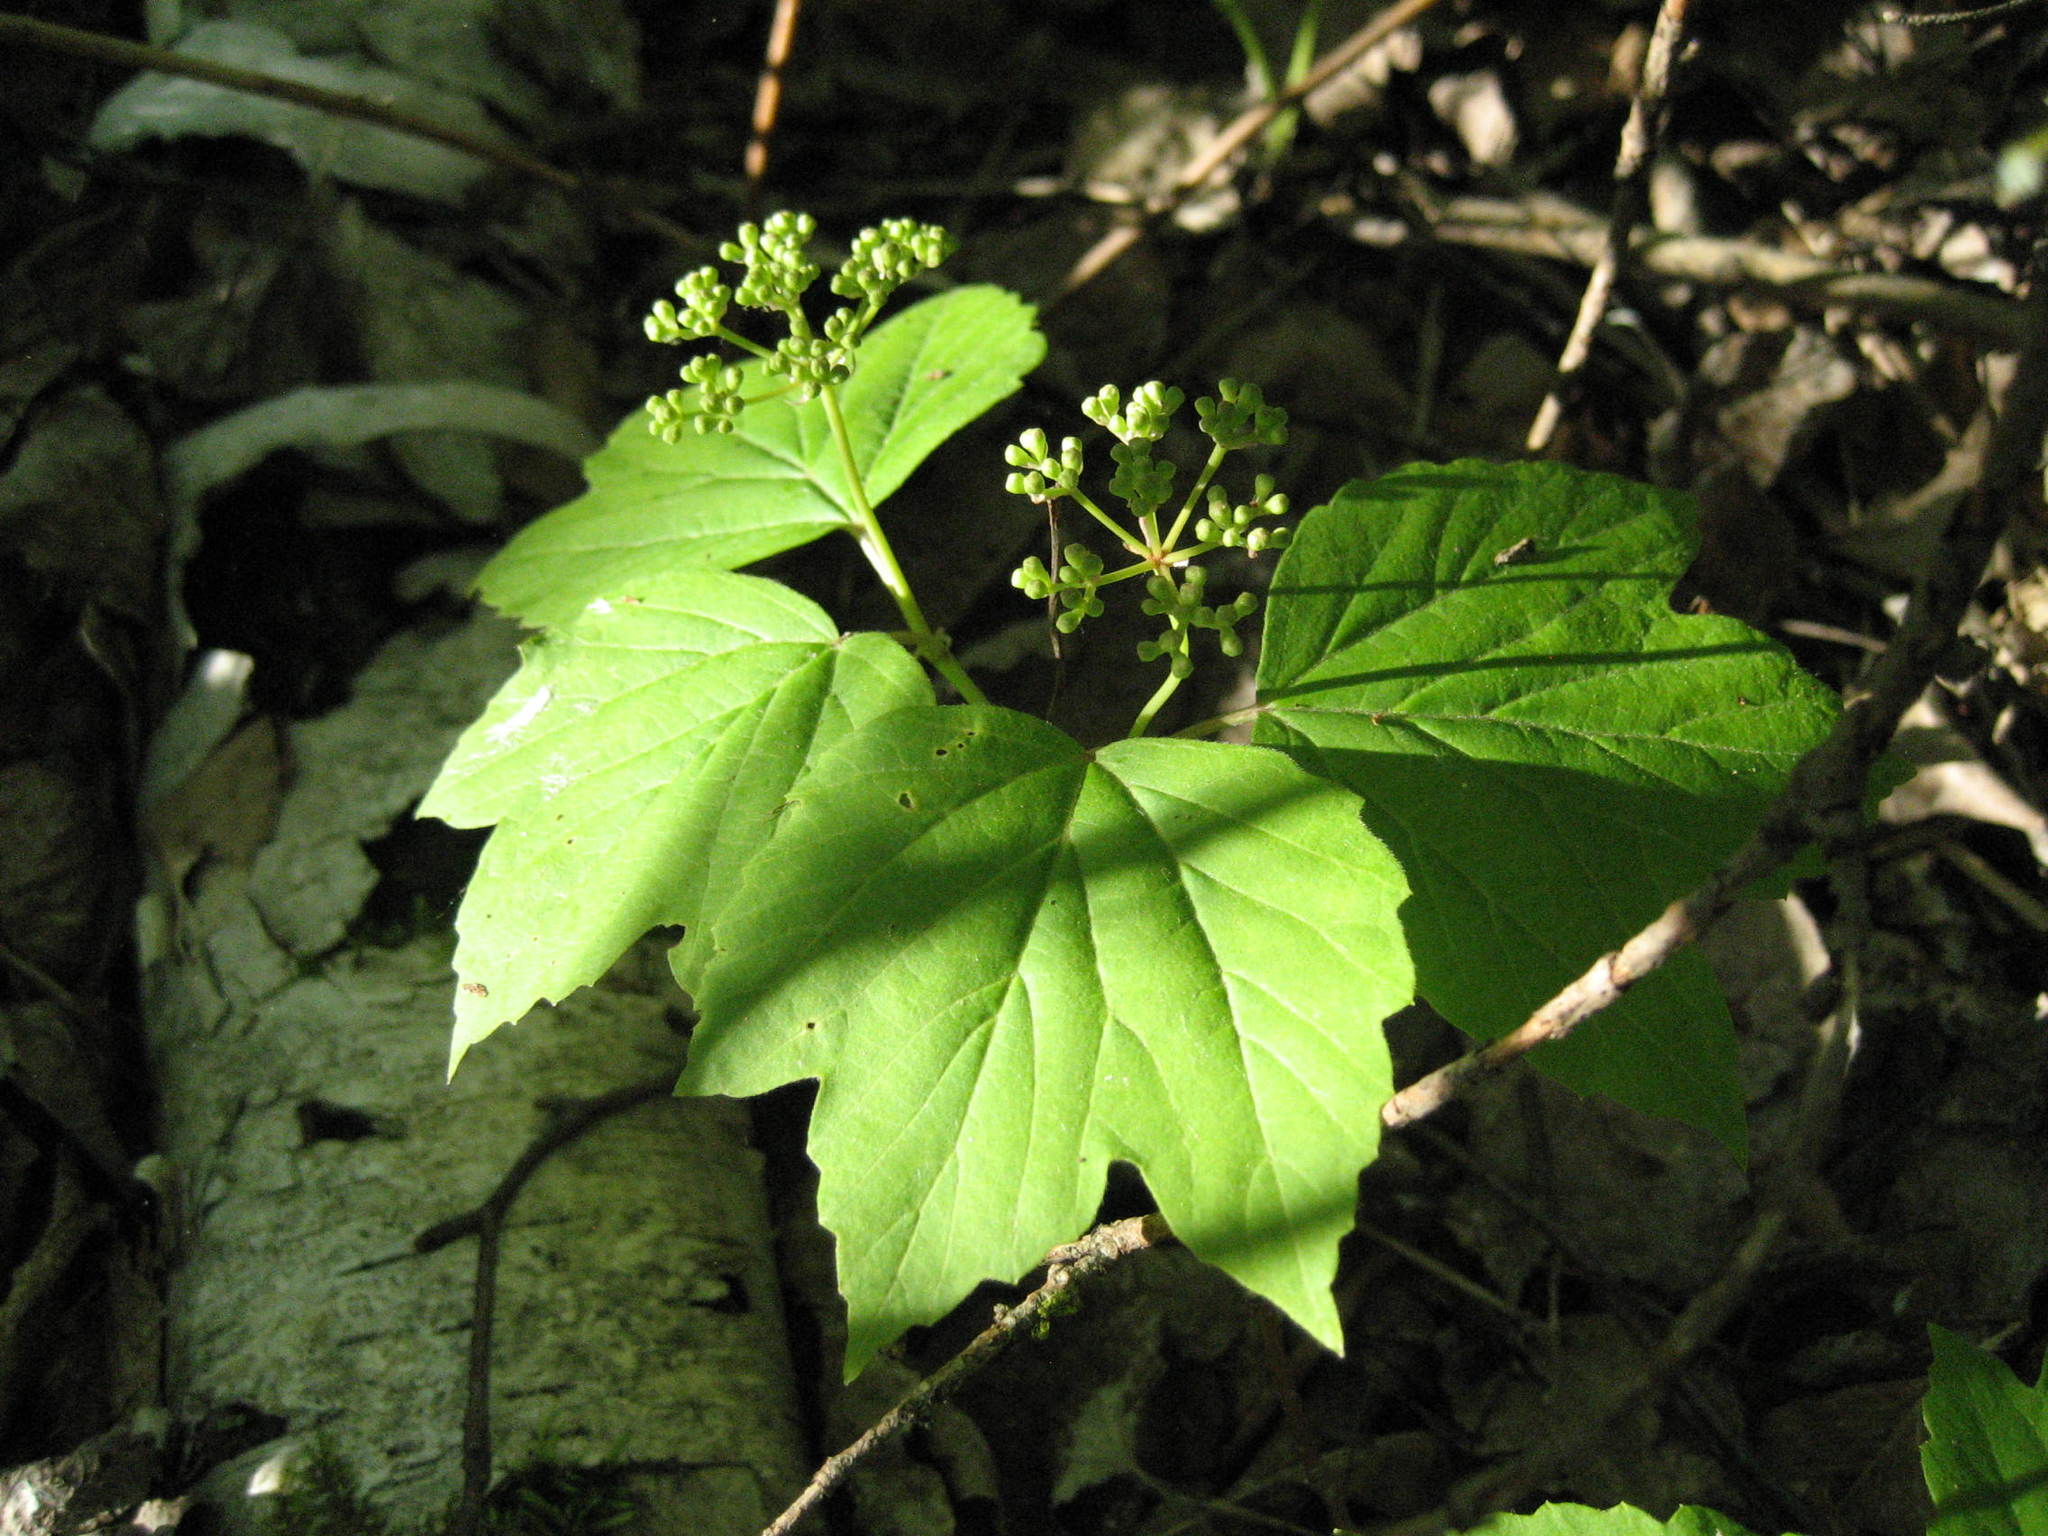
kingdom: Plantae
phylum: Tracheophyta
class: Magnoliopsida
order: Dipsacales
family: Viburnaceae
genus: Viburnum
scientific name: Viburnum acerifolium
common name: Dockmackie
